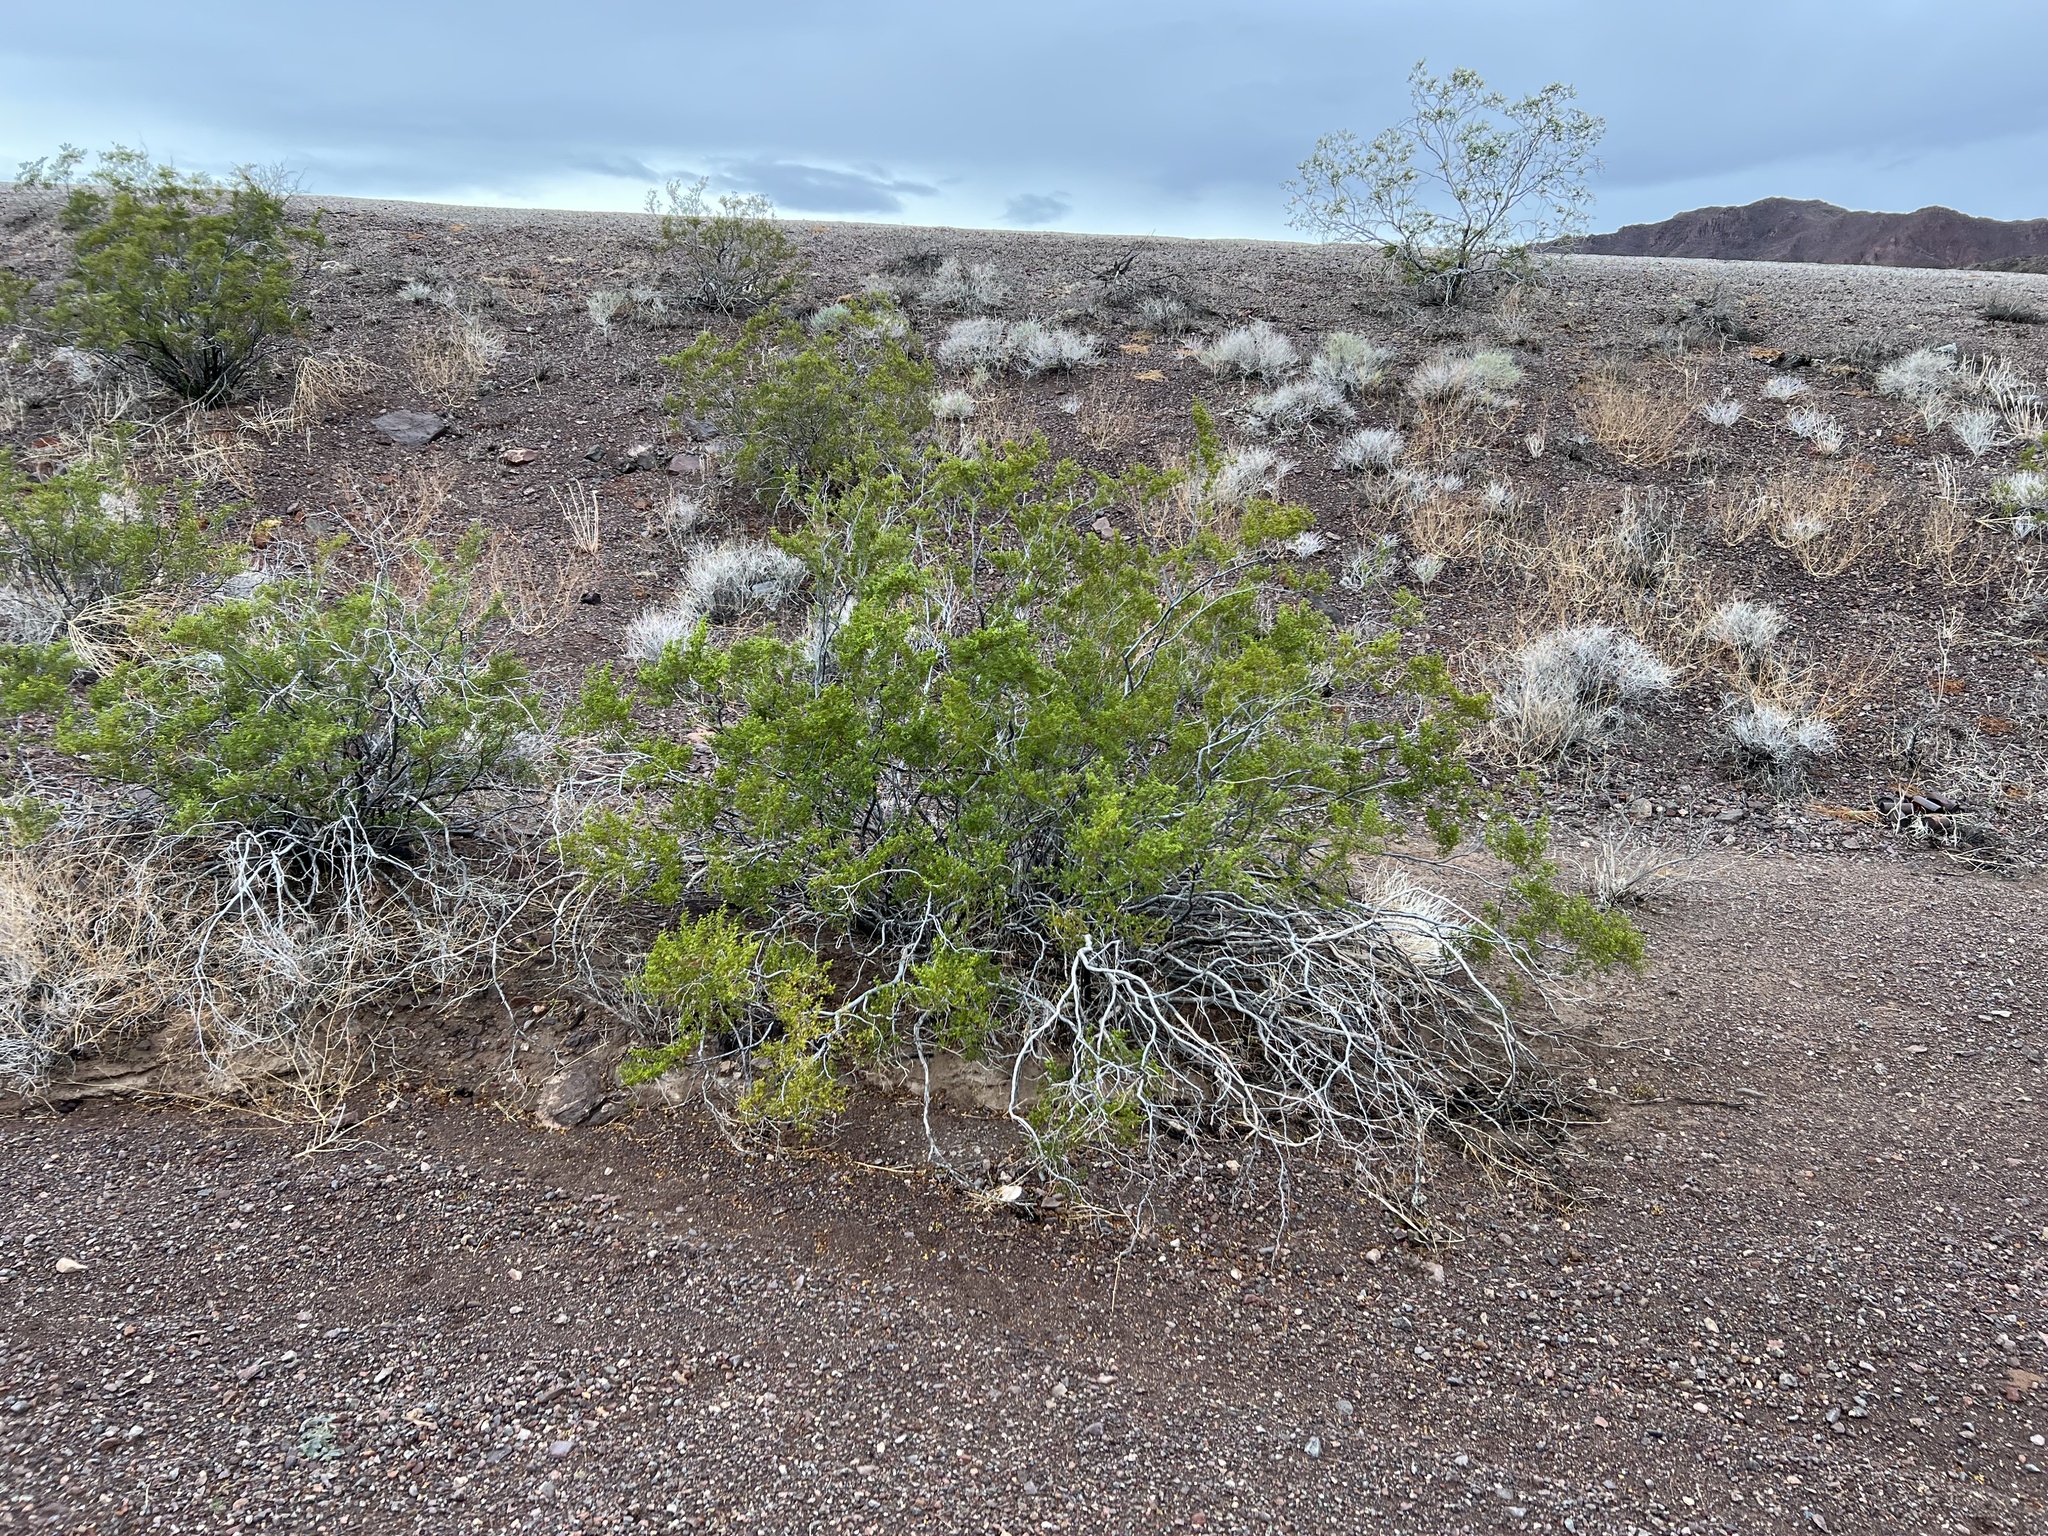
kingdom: Plantae
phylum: Tracheophyta
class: Magnoliopsida
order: Zygophyllales
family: Zygophyllaceae
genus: Larrea
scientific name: Larrea tridentata
